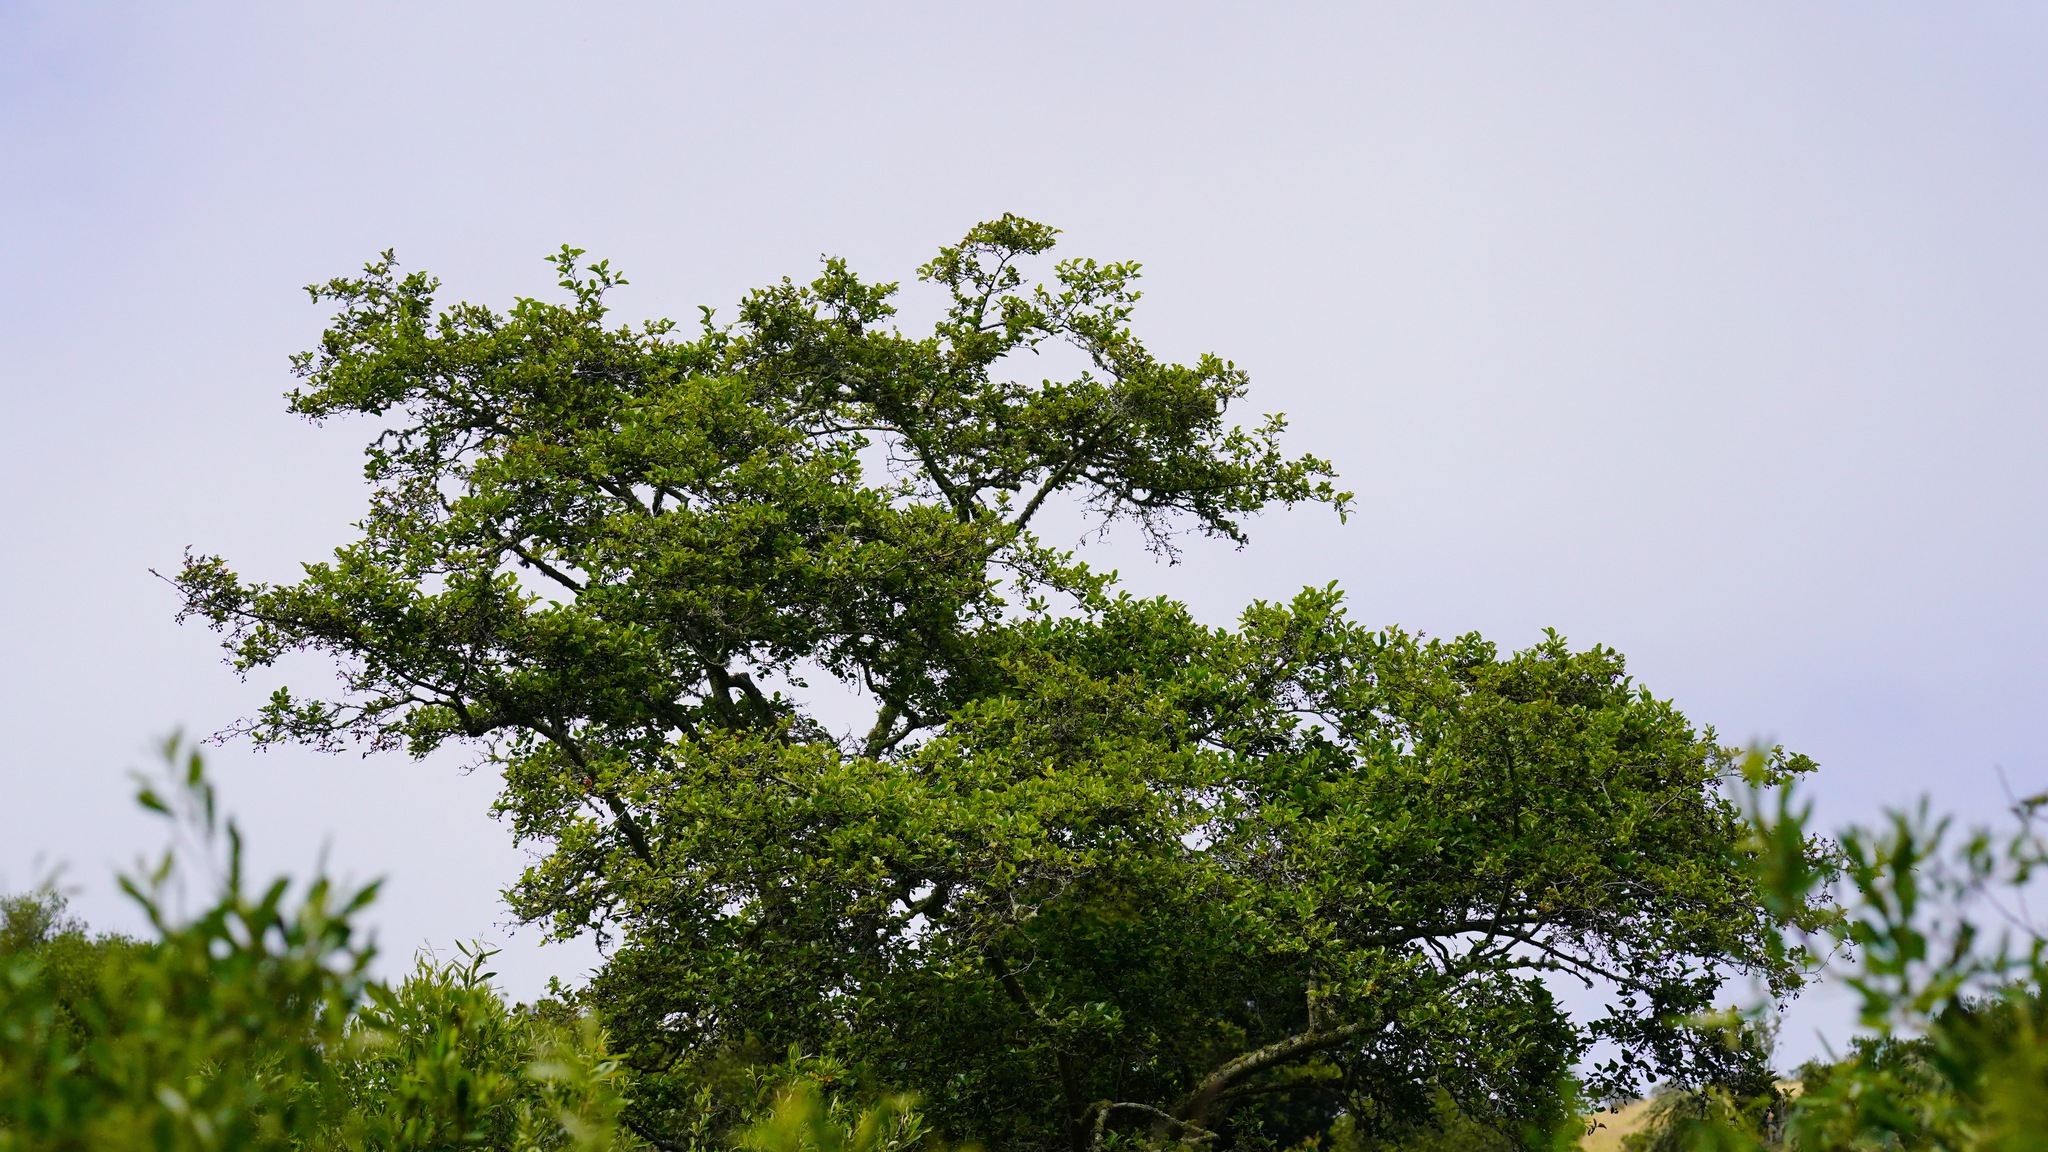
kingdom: Plantae
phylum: Tracheophyta
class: Magnoliopsida
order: Fagales
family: Betulaceae
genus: Alnus
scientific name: Alnus rhombifolia
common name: California alder
